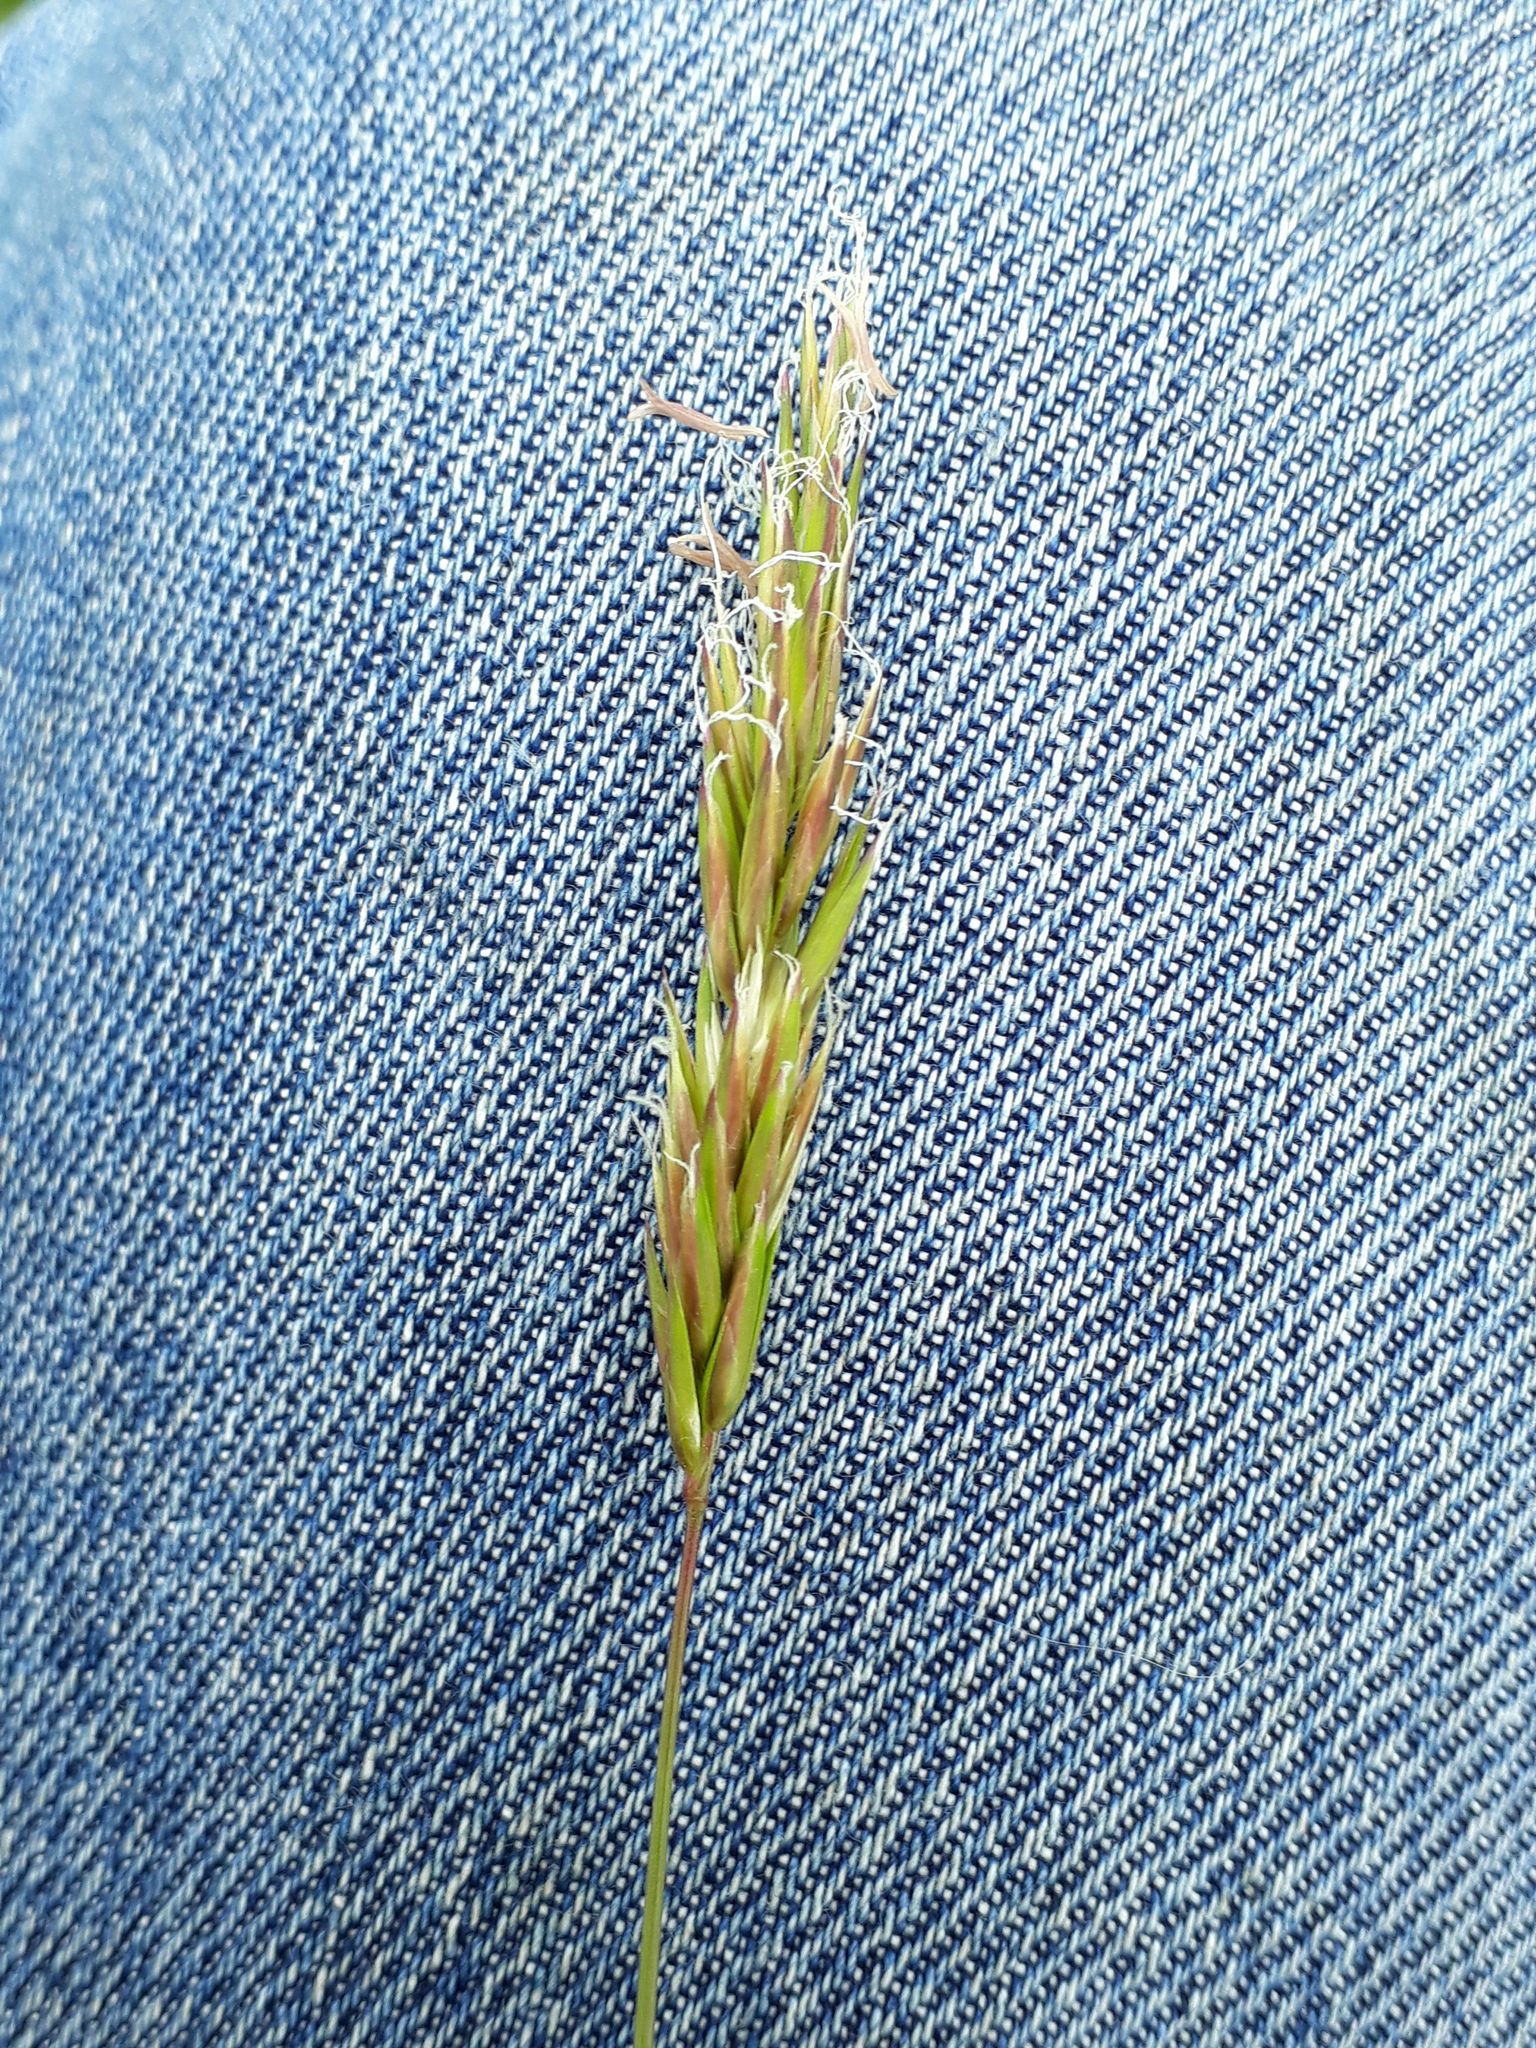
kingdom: Plantae
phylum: Tracheophyta
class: Liliopsida
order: Poales
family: Poaceae
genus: Anthoxanthum
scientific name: Anthoxanthum odoratum
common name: Sweet vernalgrass
